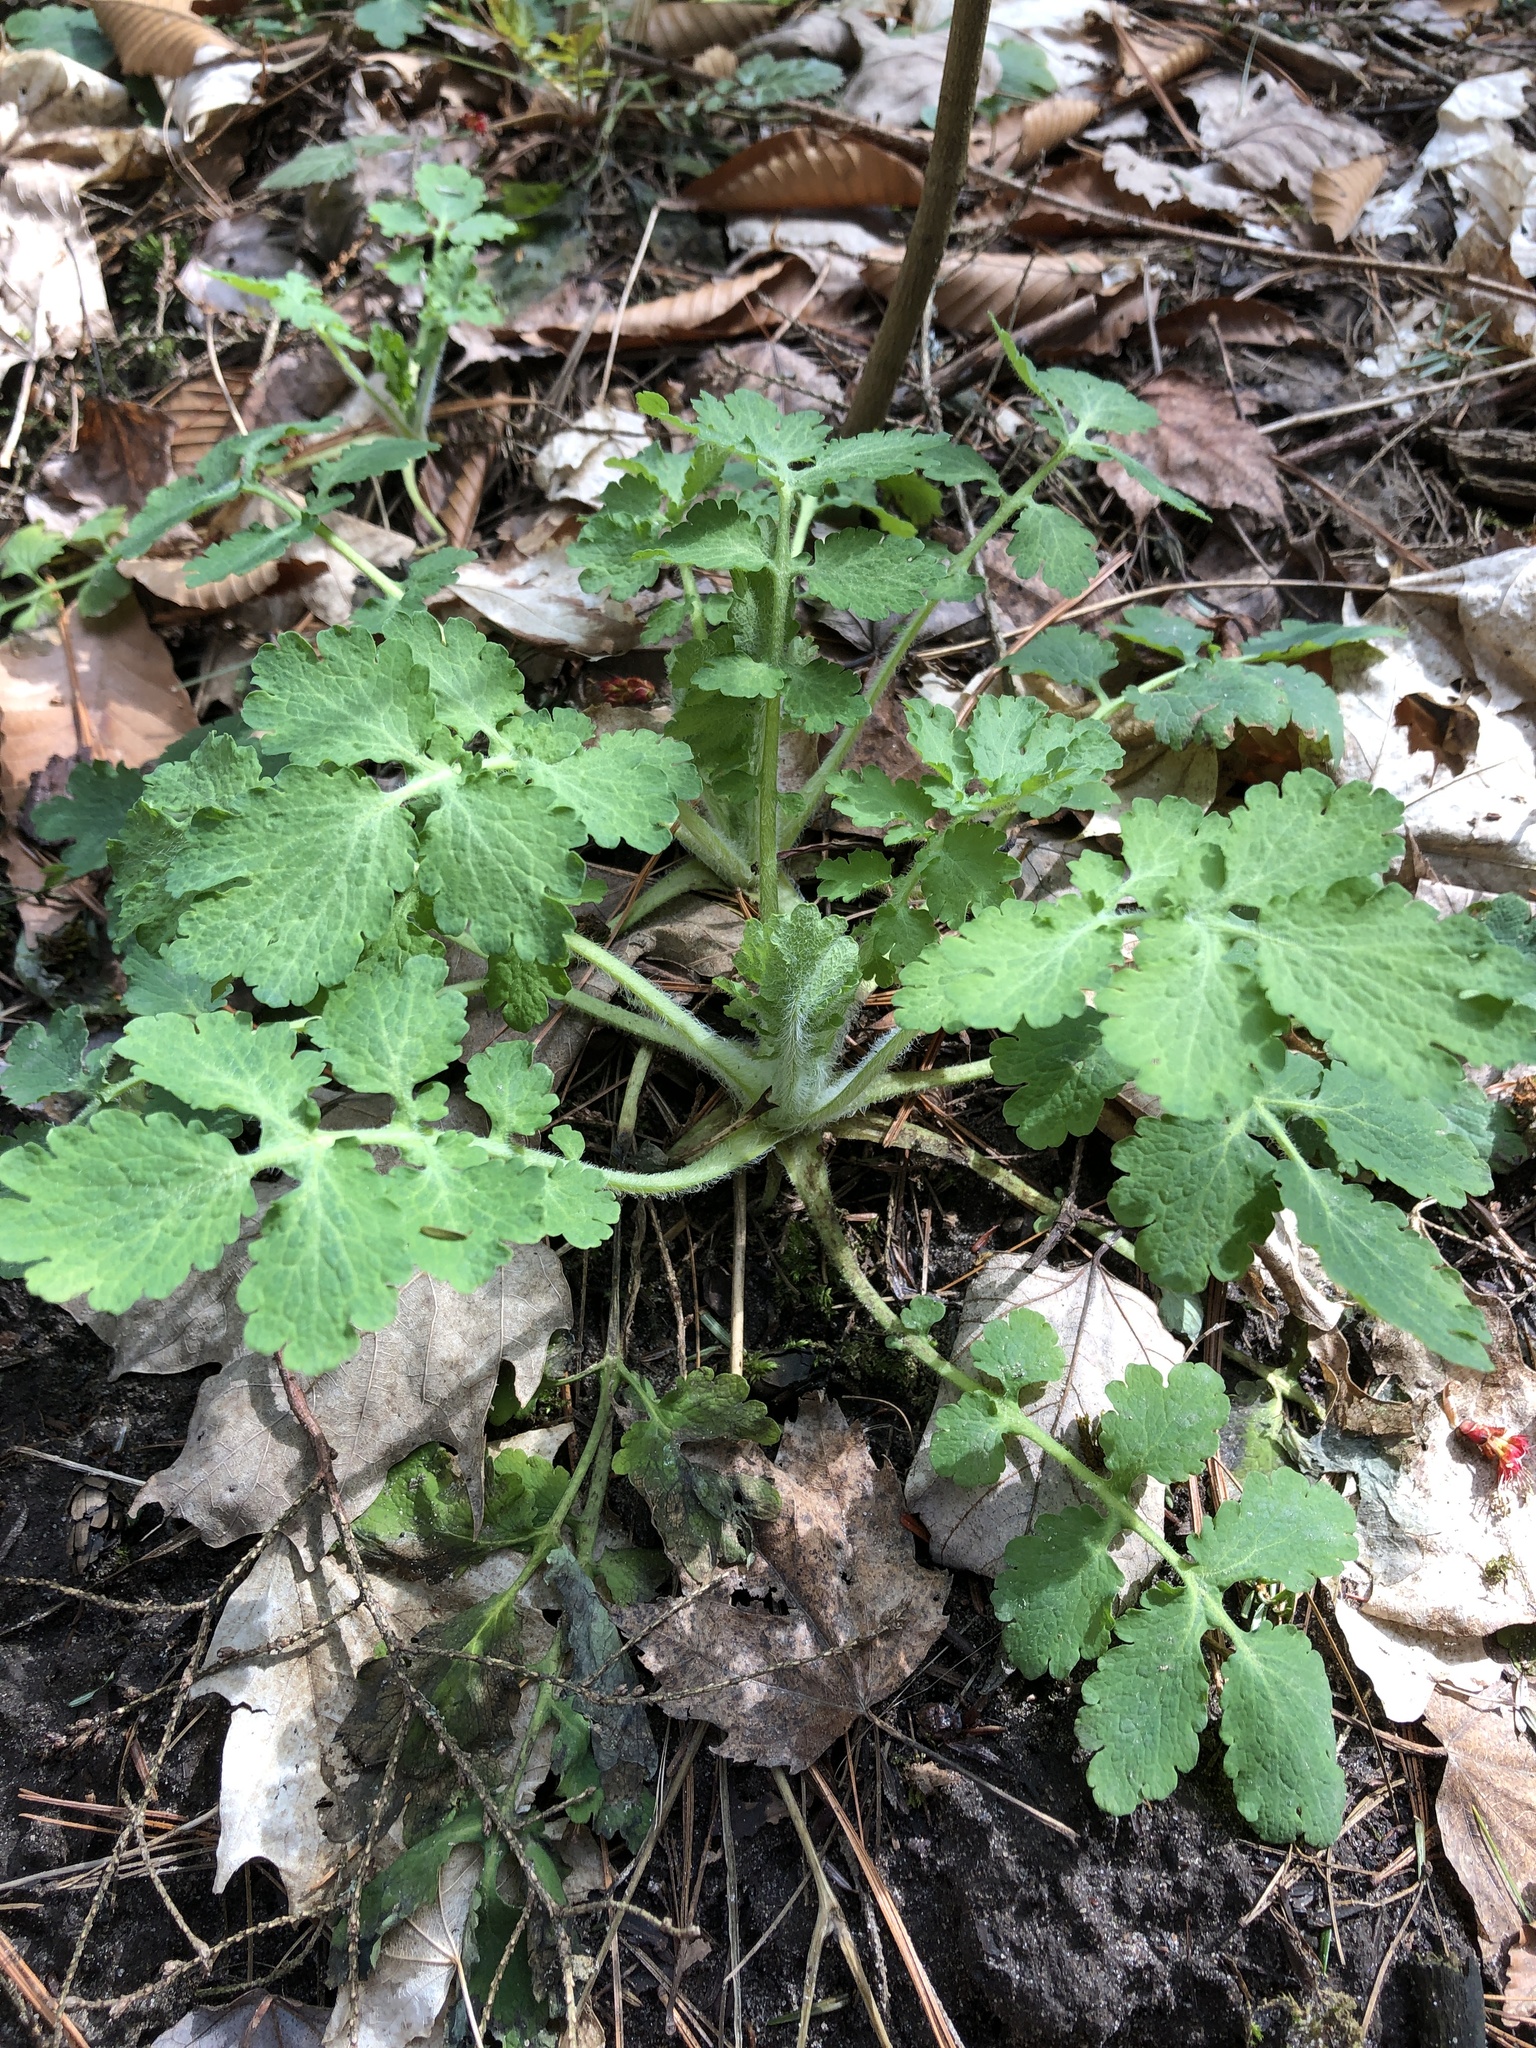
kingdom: Plantae
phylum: Tracheophyta
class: Magnoliopsida
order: Ranunculales
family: Papaveraceae
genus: Chelidonium
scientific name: Chelidonium majus
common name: Greater celandine
